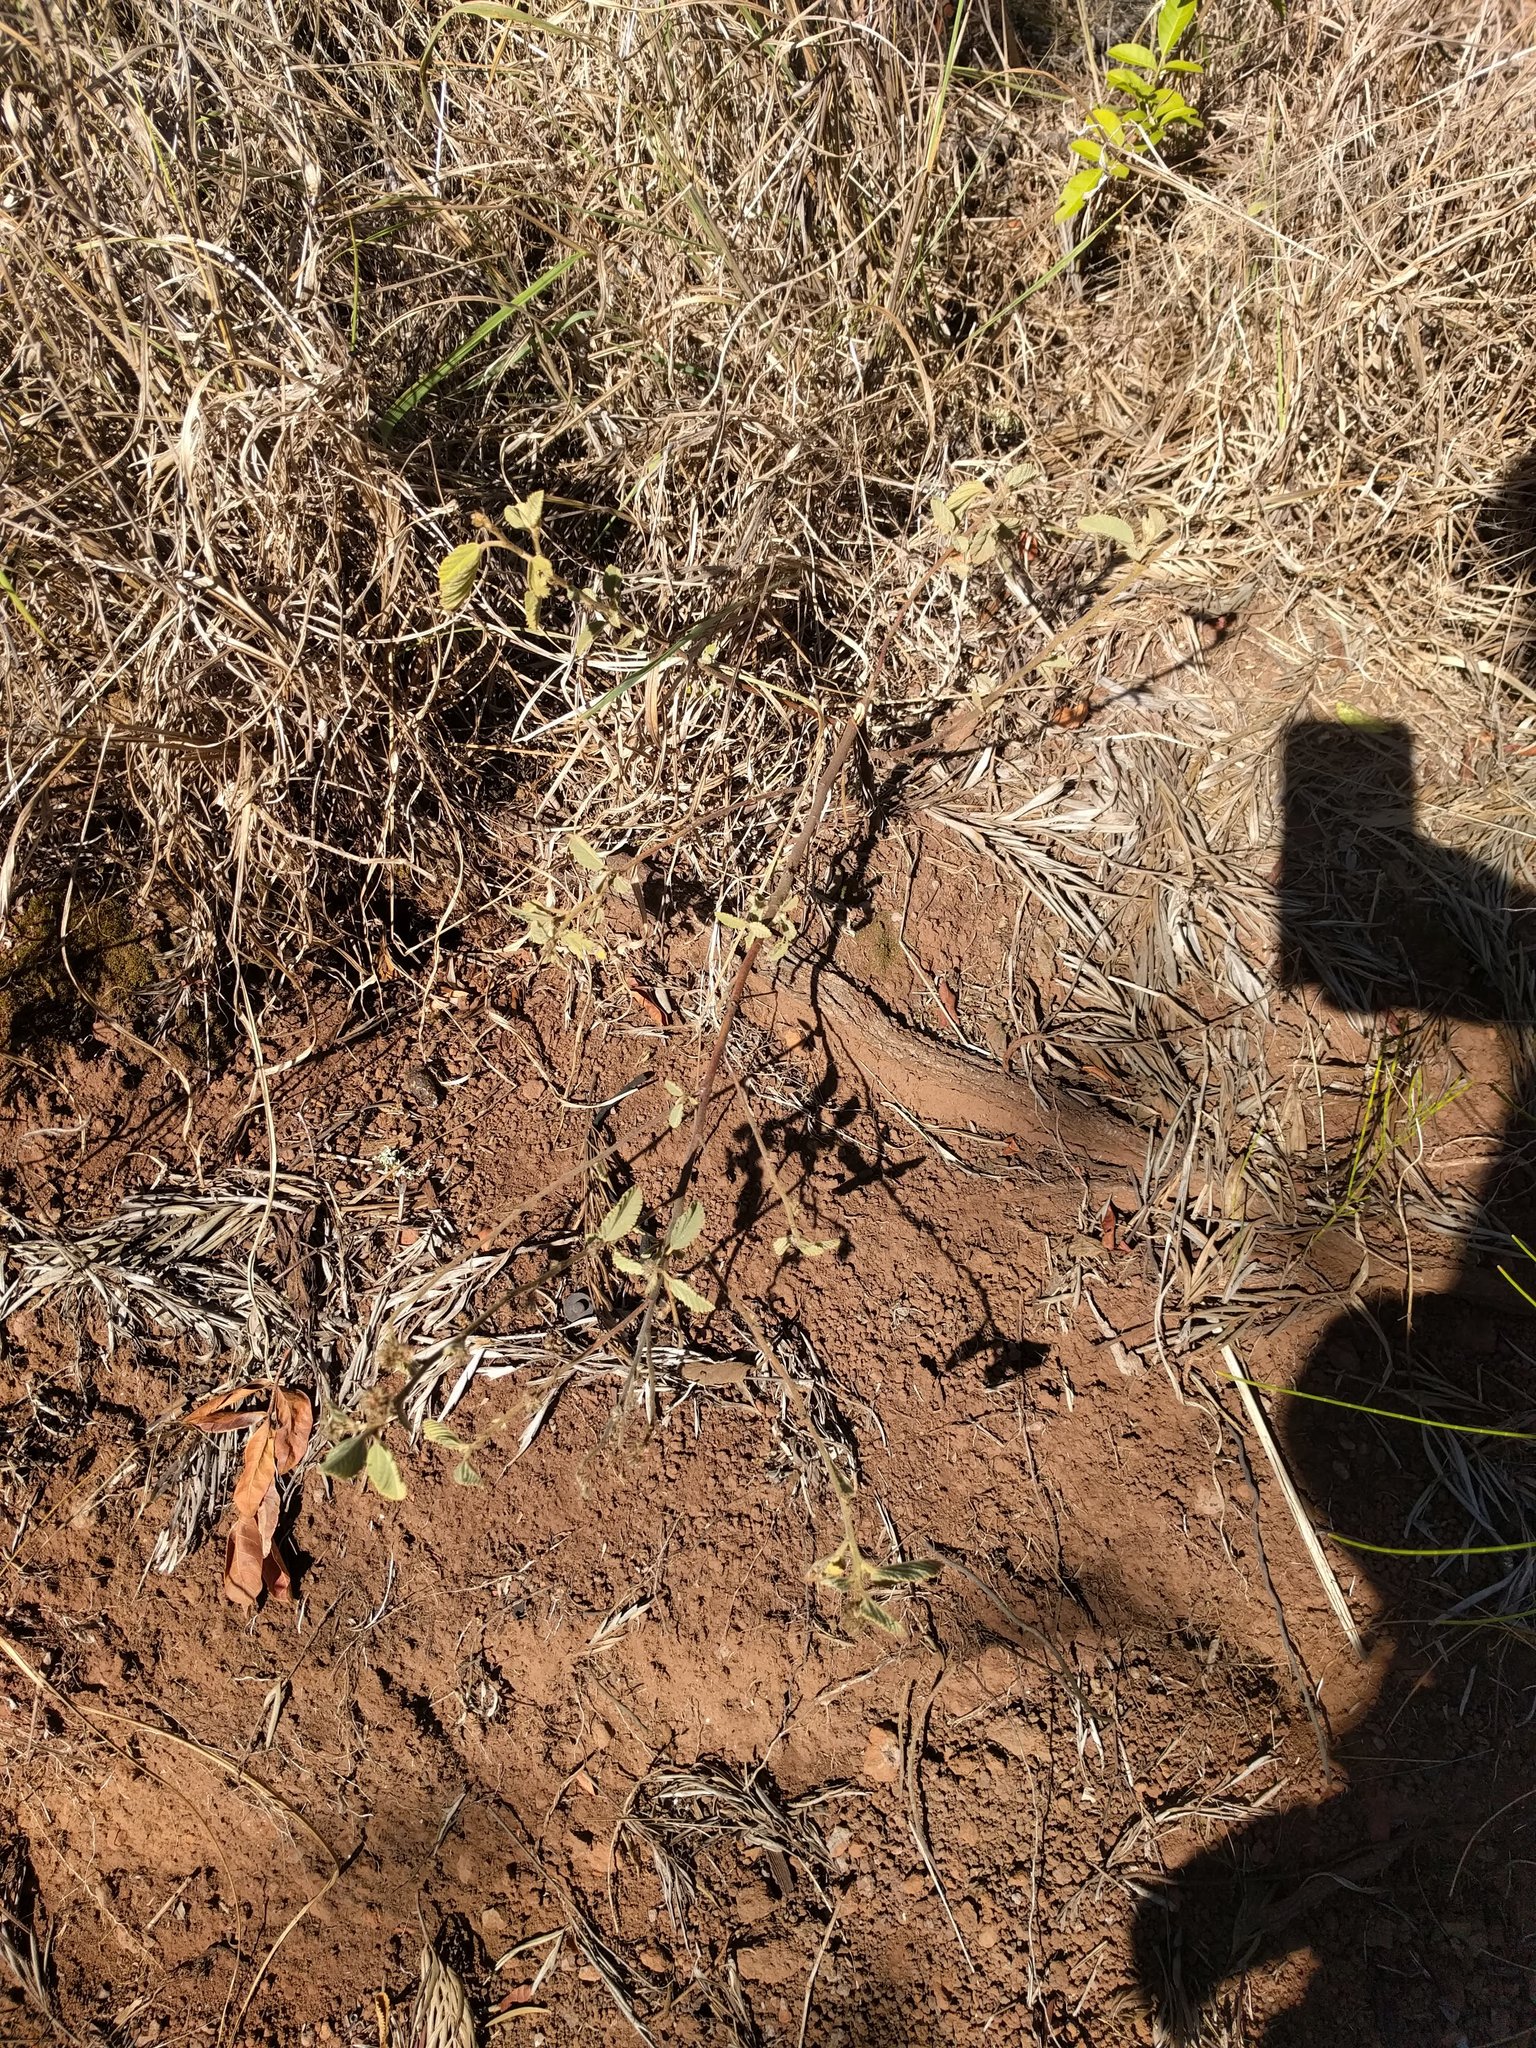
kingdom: Plantae
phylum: Tracheophyta
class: Magnoliopsida
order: Malvales
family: Malvaceae
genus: Waltheria
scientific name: Waltheria indica
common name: Leather-coat
